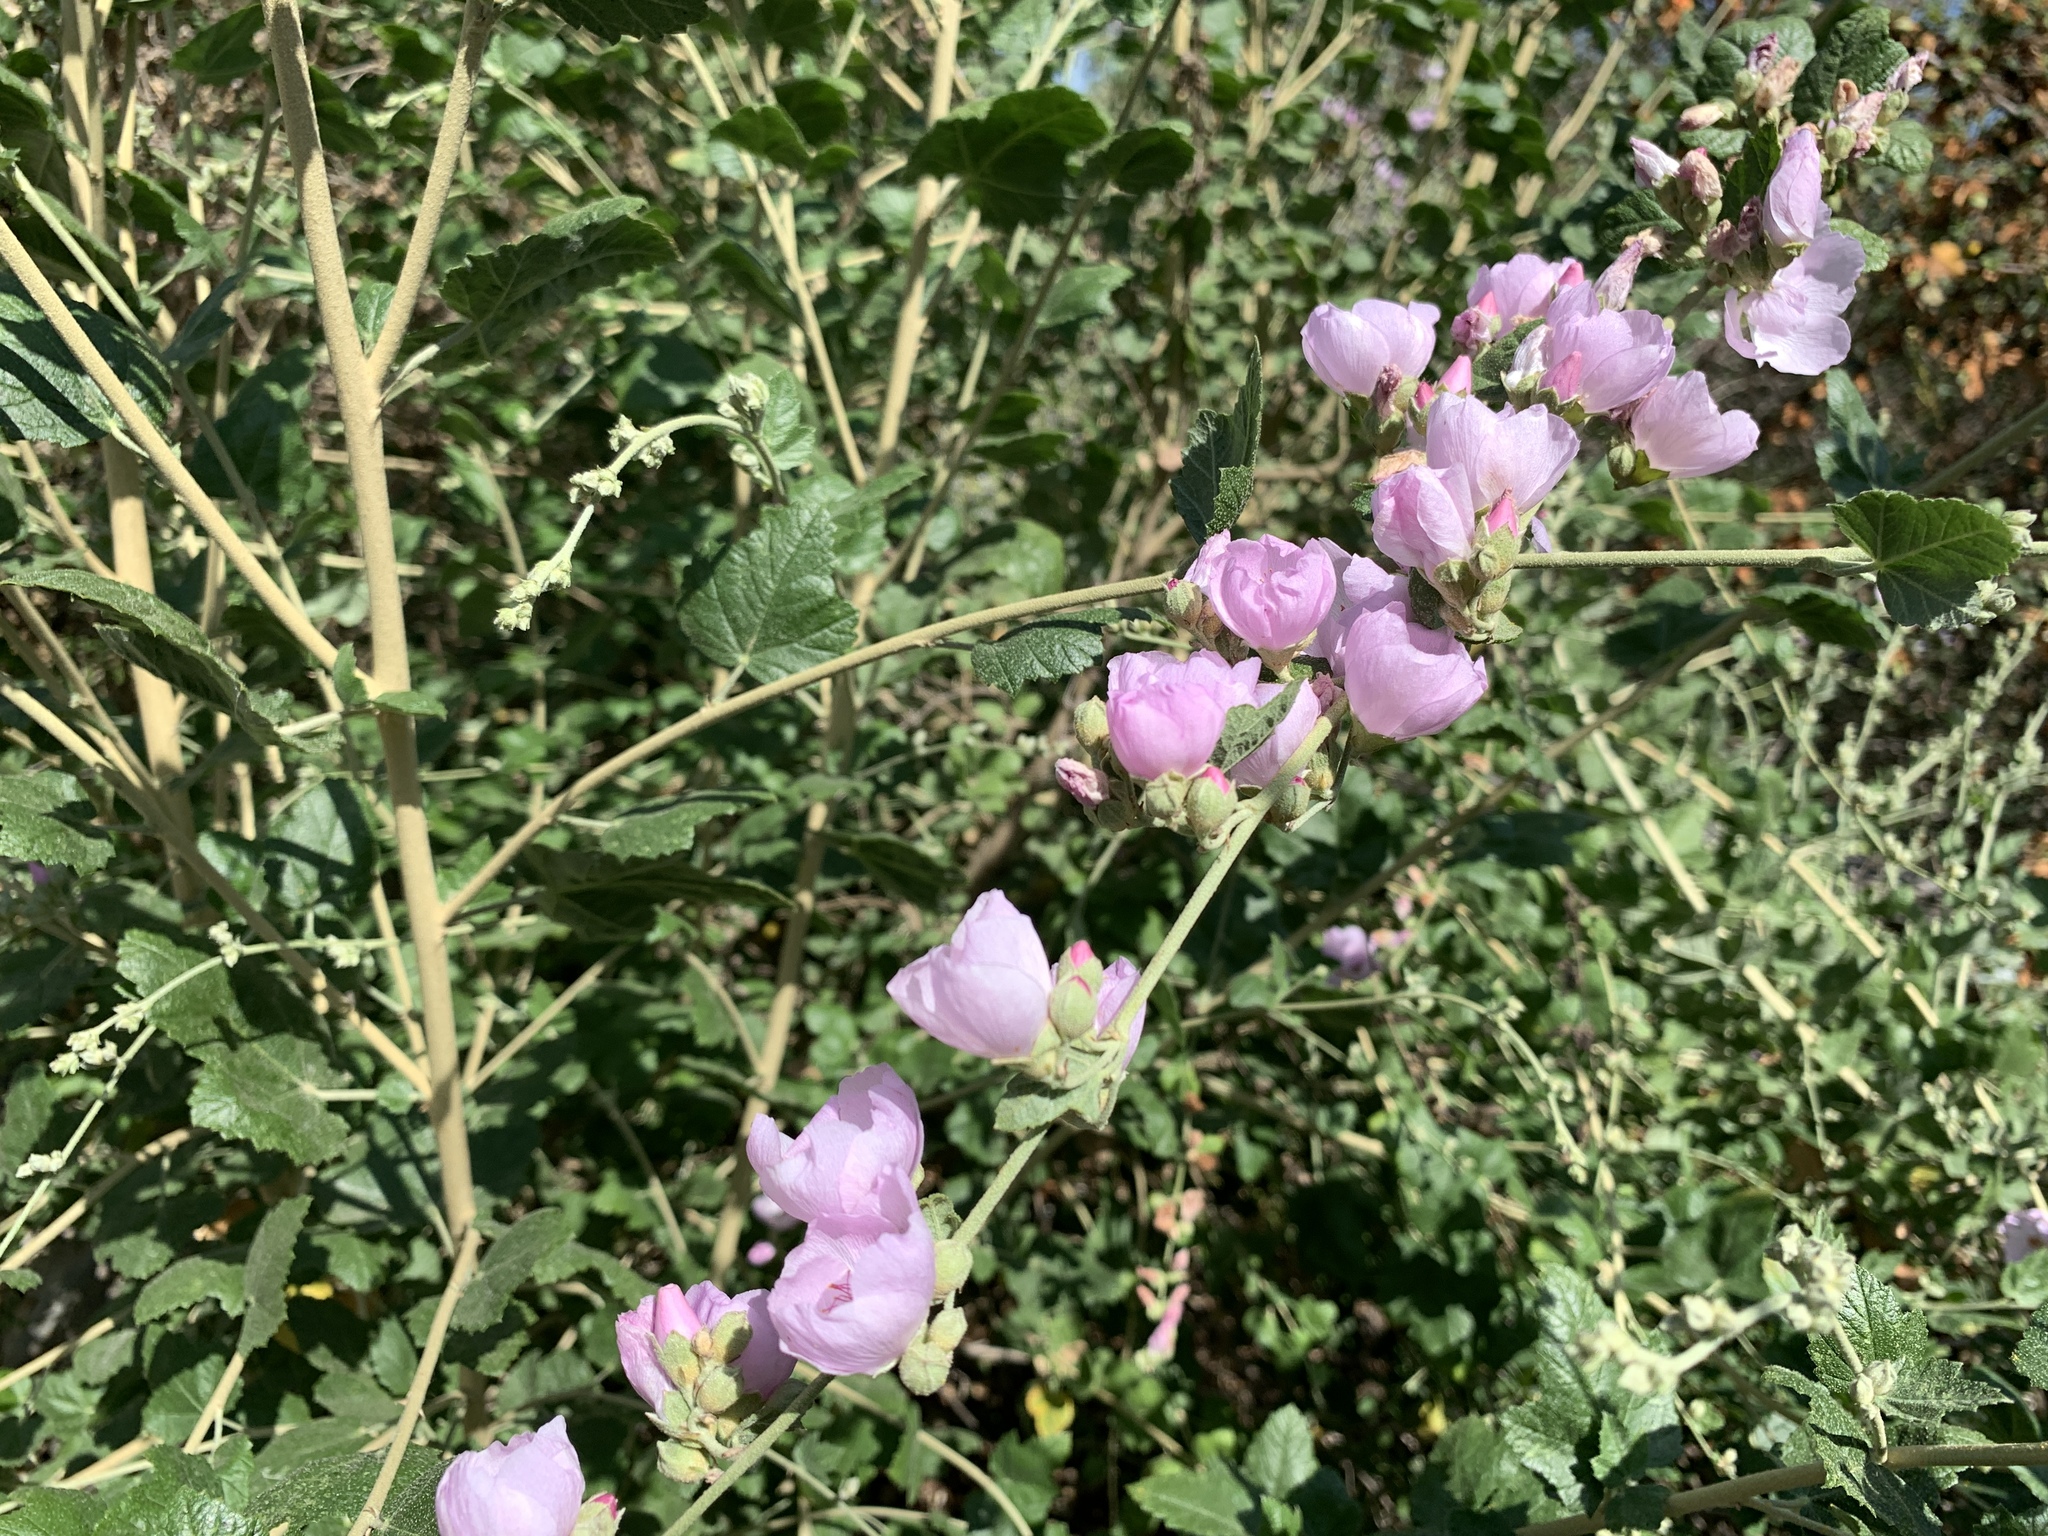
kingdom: Plantae
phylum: Tracheophyta
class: Magnoliopsida
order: Malvales
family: Malvaceae
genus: Malacothamnus
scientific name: Malacothamnus fasciculatus
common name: Sant cruz island bush-mallow
